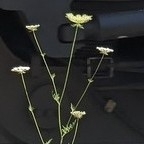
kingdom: Plantae
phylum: Tracheophyta
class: Magnoliopsida
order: Apiales
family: Apiaceae
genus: Daucus
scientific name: Daucus carota
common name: Wild carrot
